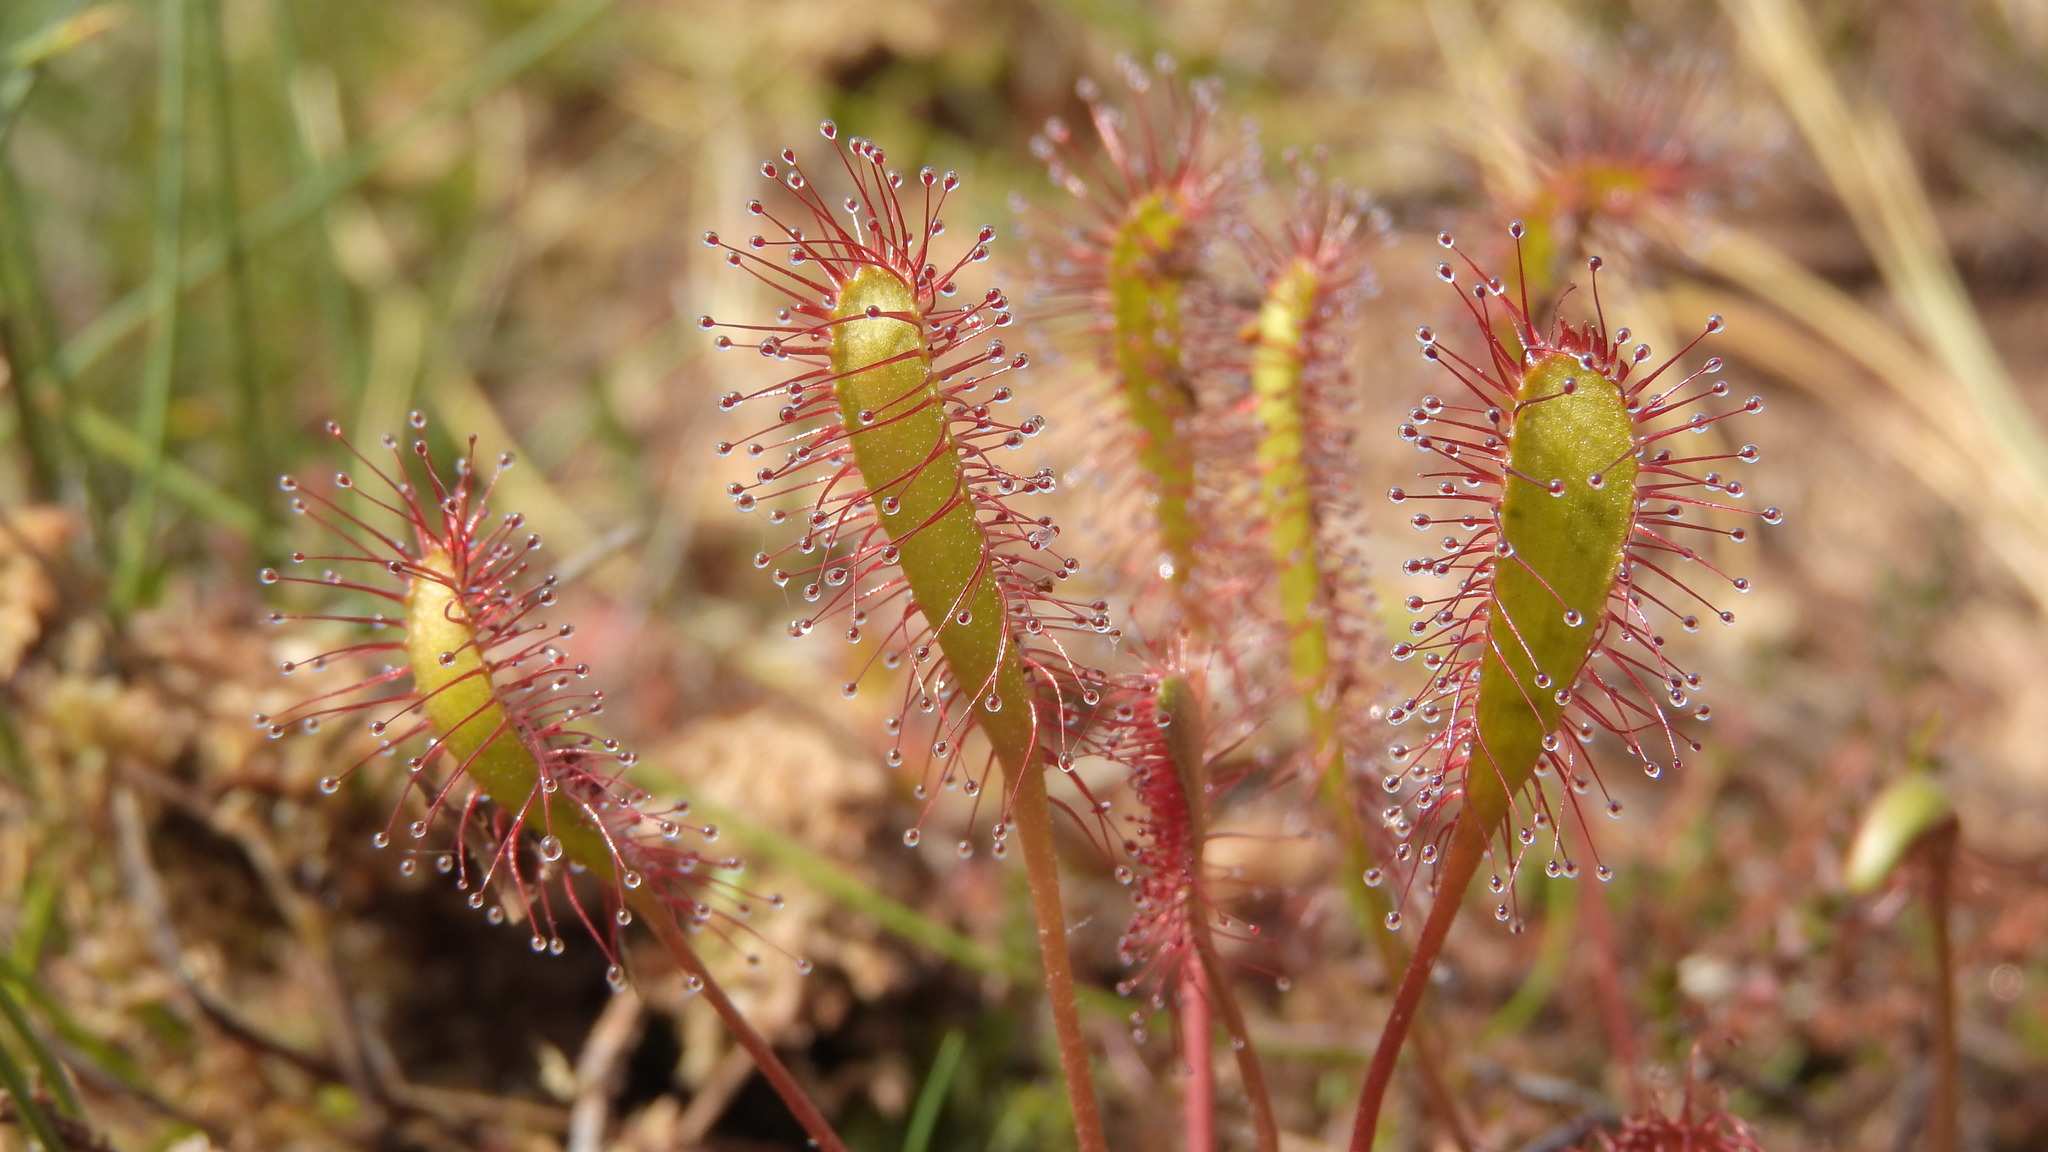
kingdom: Plantae
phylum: Tracheophyta
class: Magnoliopsida
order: Caryophyllales
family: Droseraceae
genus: Drosera
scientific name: Drosera anglica
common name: Great sundew
